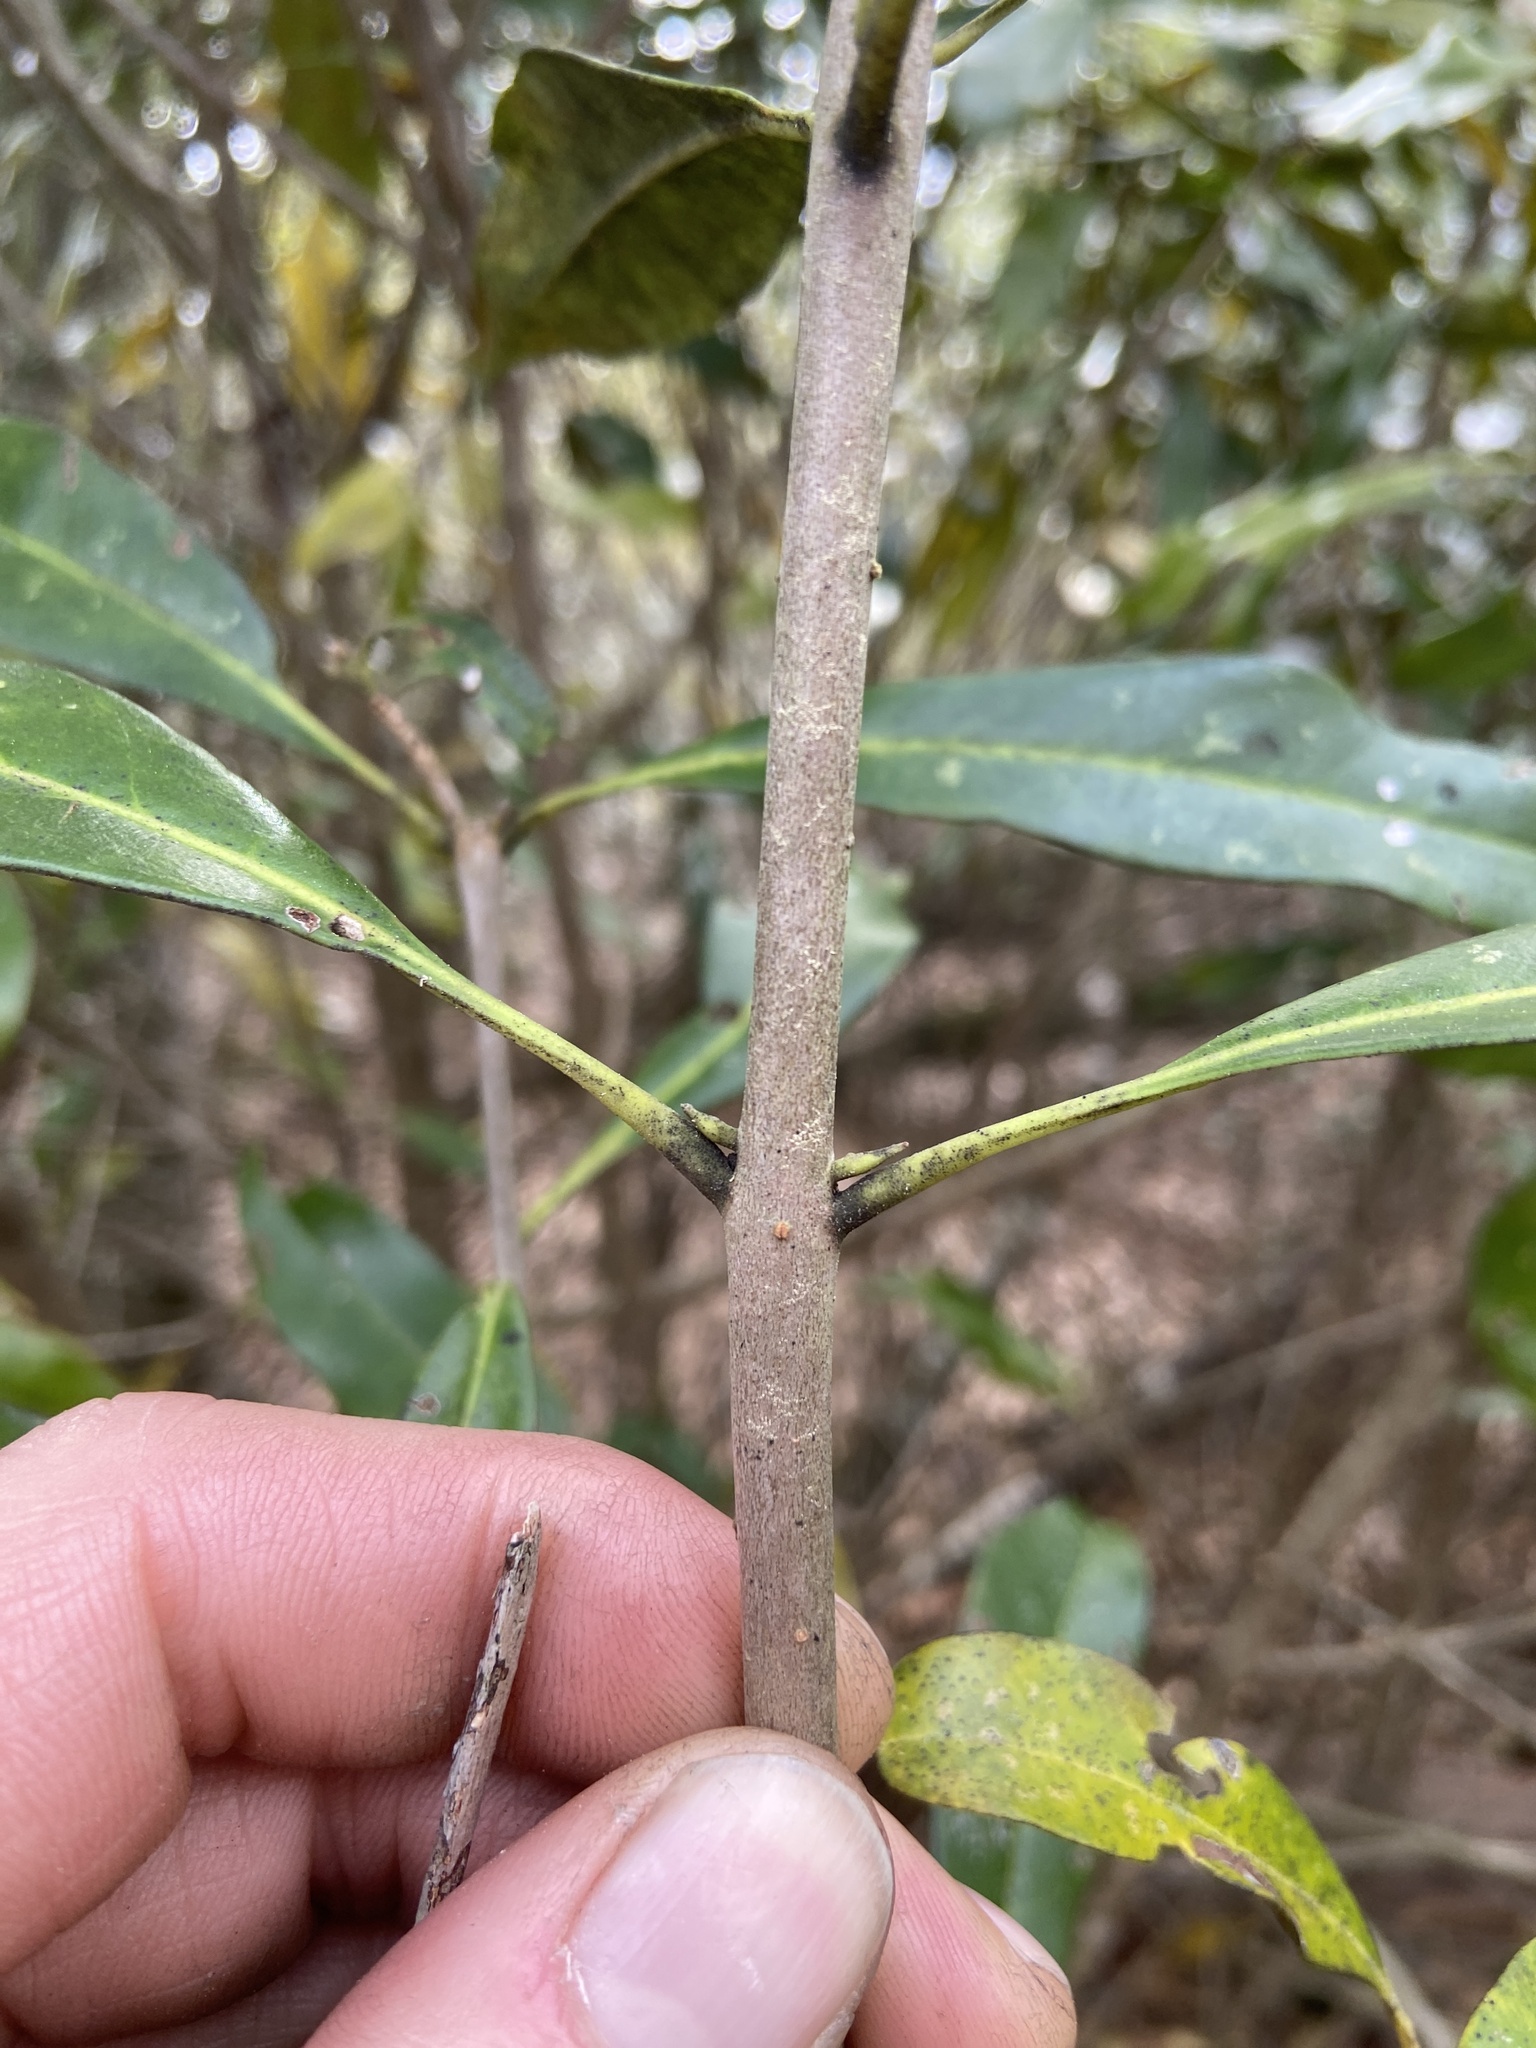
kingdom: Plantae
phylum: Tracheophyta
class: Magnoliopsida
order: Lamiales
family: Oleaceae
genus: Cartrema
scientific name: Cartrema americana
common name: Devilwood
